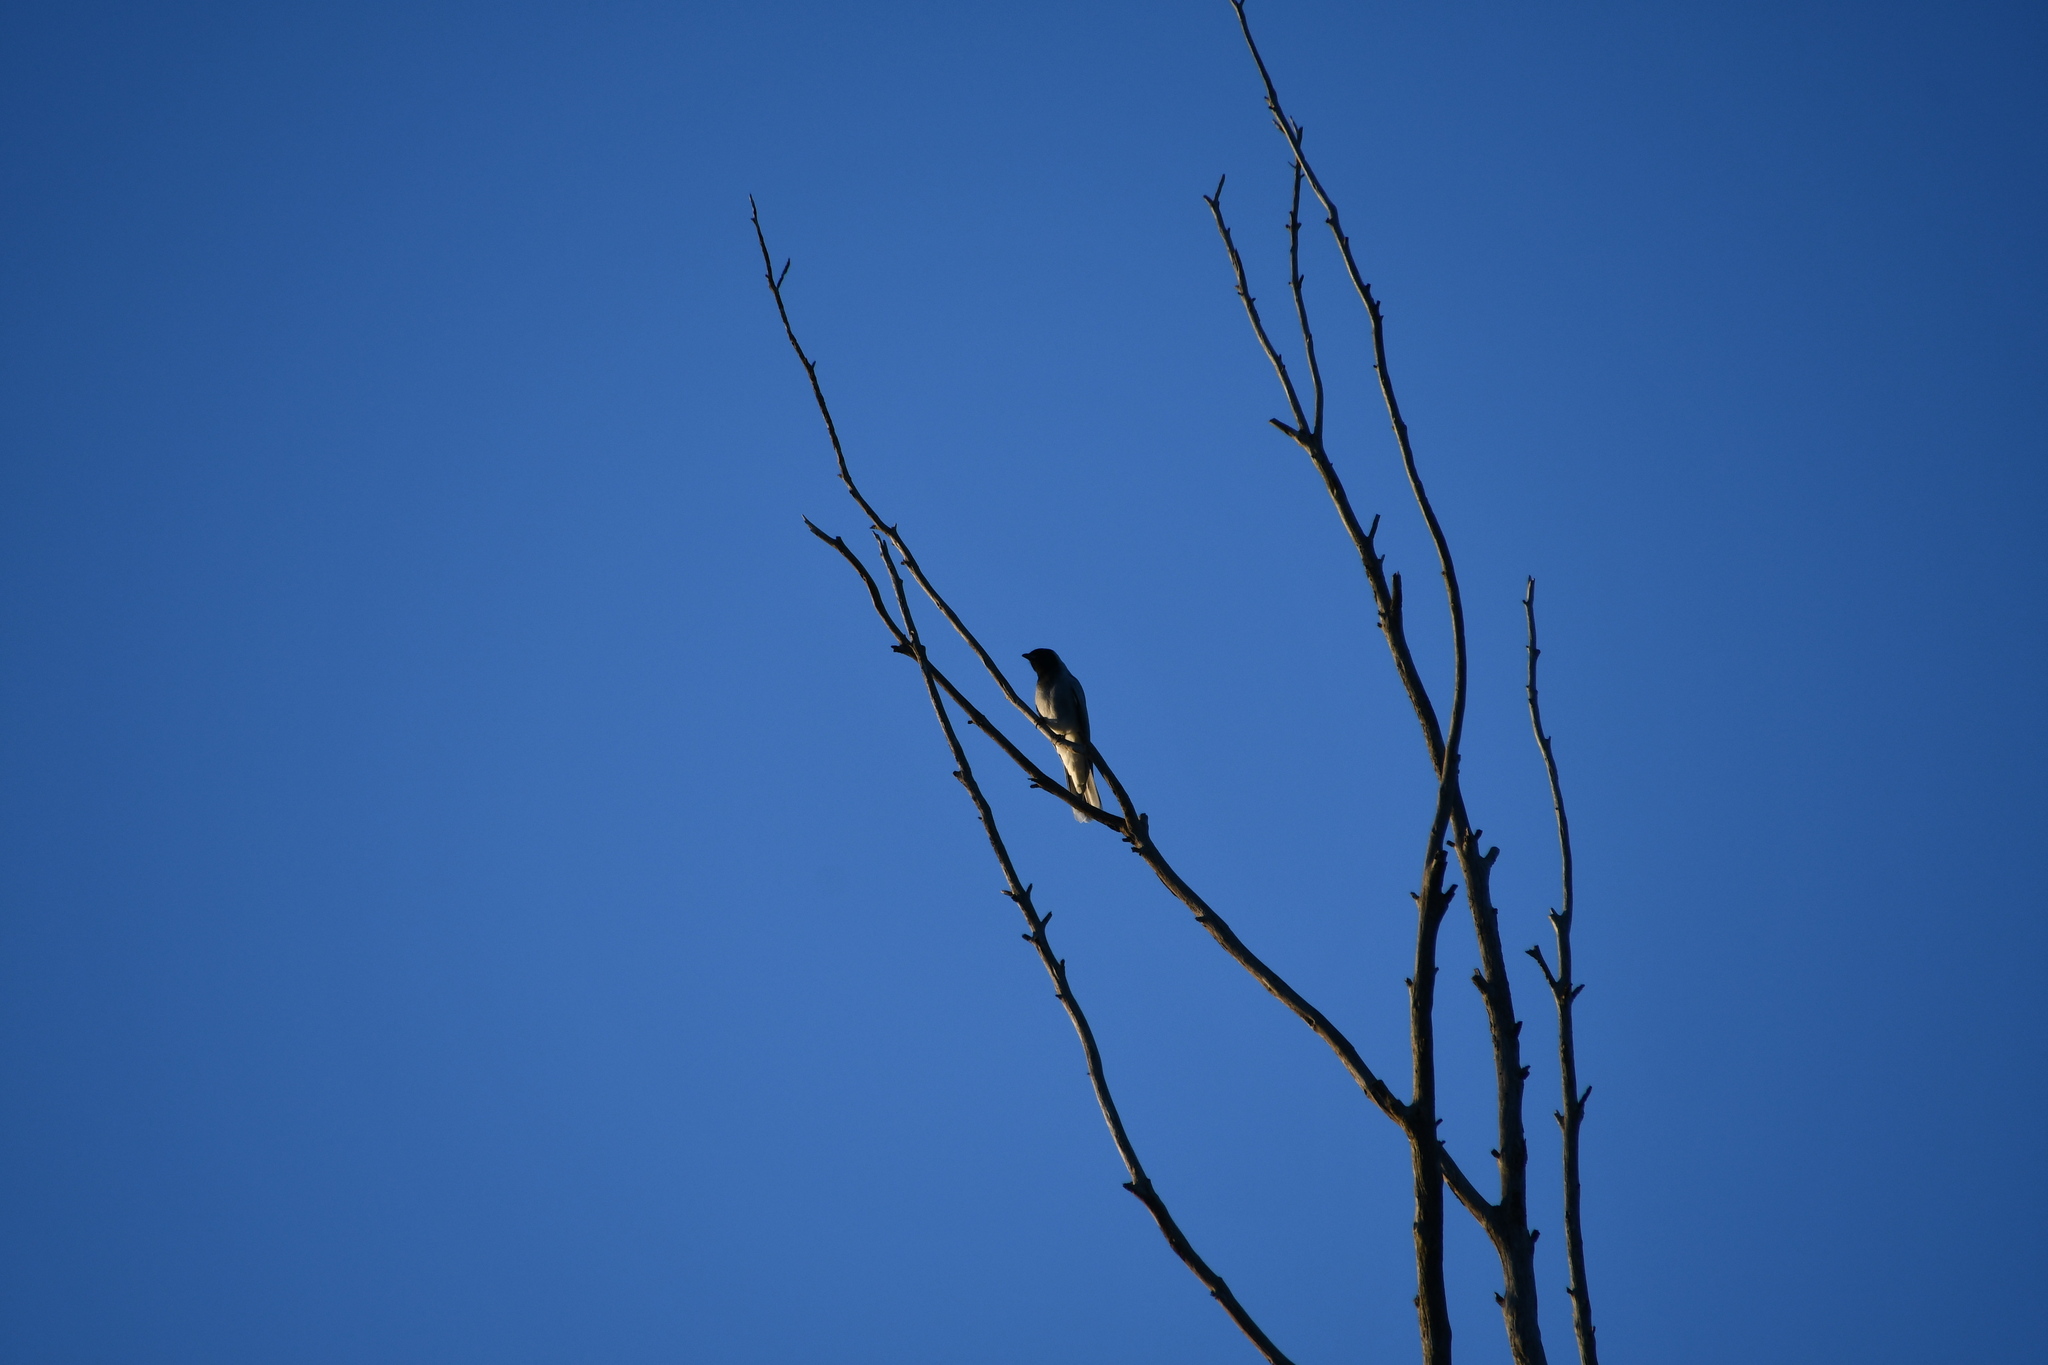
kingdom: Animalia
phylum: Chordata
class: Aves
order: Passeriformes
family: Campephagidae
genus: Coracina
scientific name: Coracina novaehollandiae
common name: Black-faced cuckooshrike
